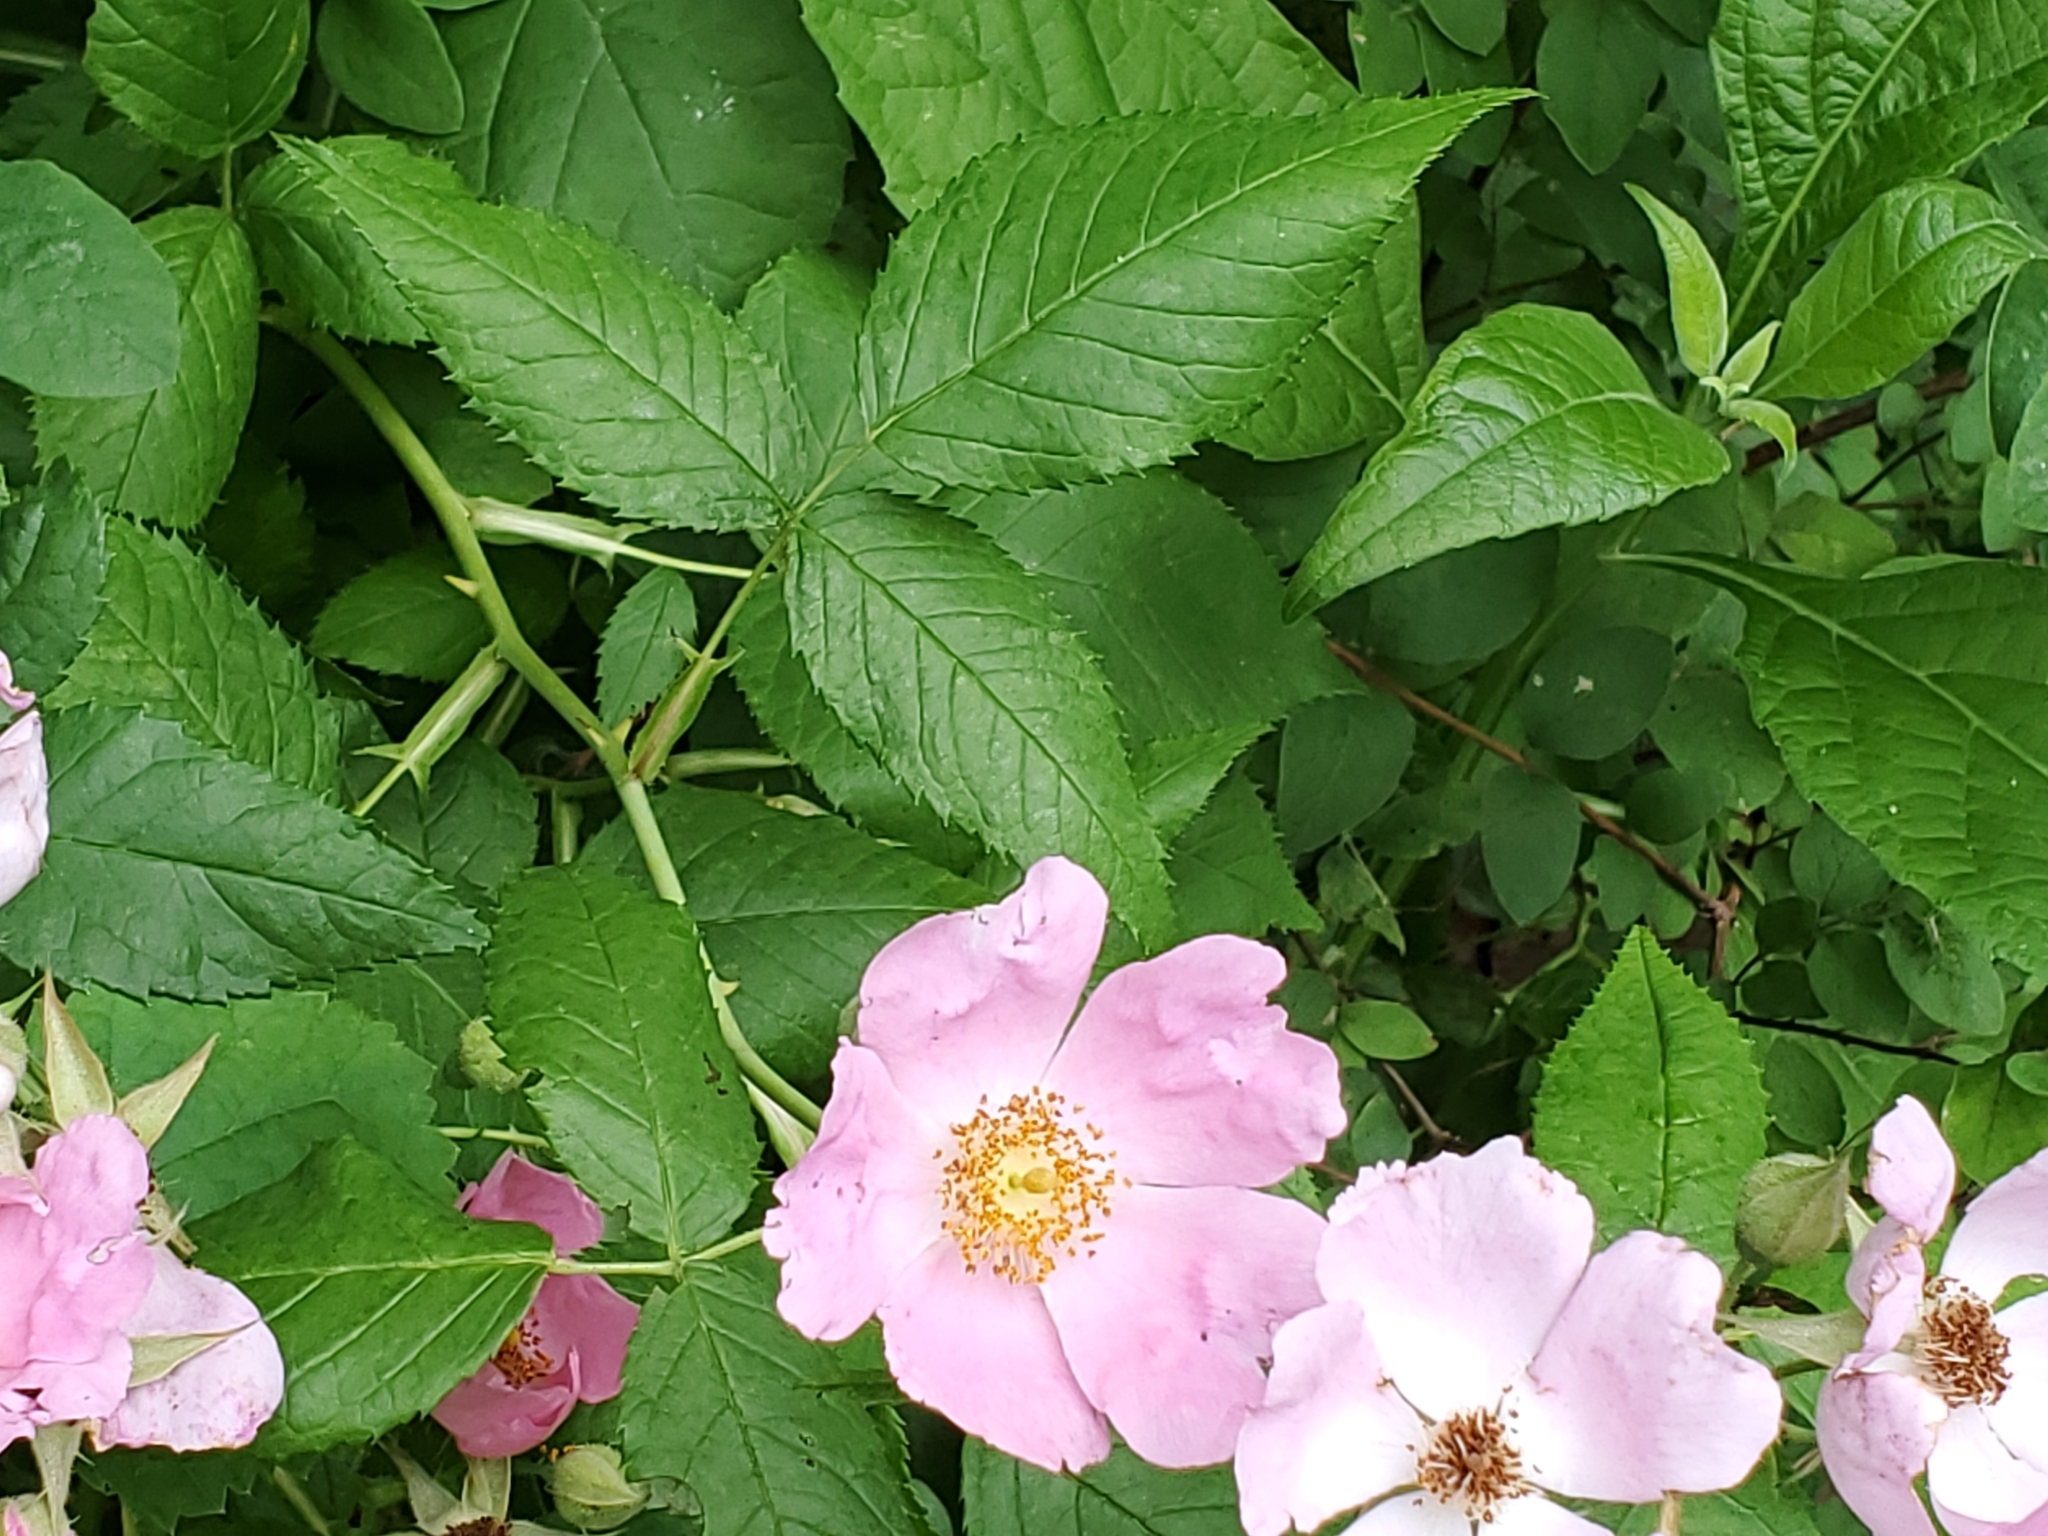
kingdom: Plantae
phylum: Tracheophyta
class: Magnoliopsida
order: Rosales
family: Rosaceae
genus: Rosa
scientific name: Rosa setigera
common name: Prairie rose
